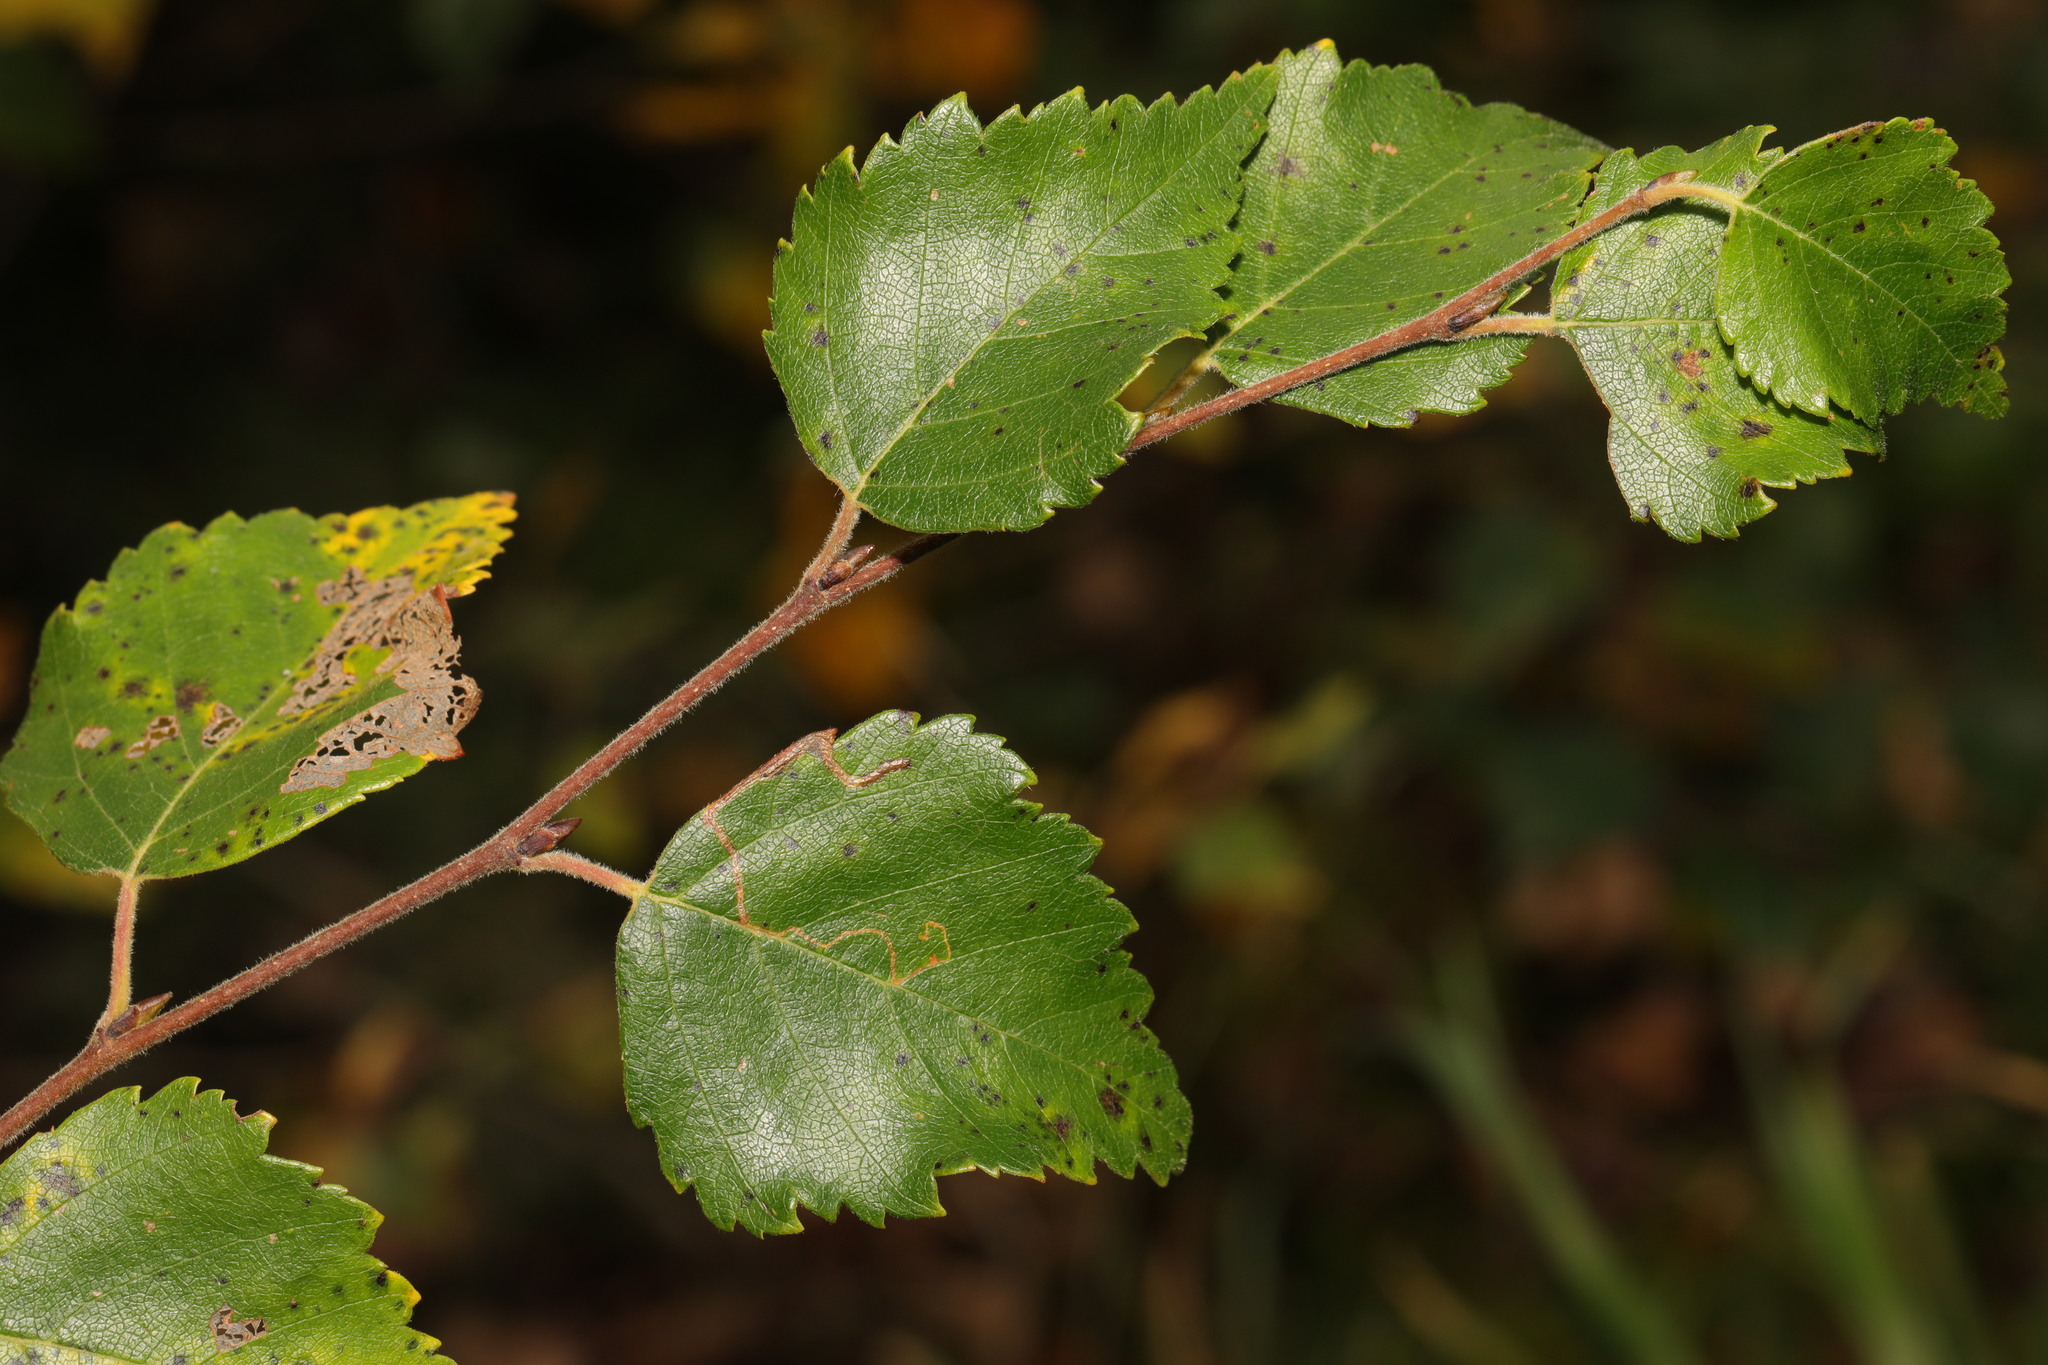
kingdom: Plantae
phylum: Tracheophyta
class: Magnoliopsida
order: Fagales
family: Betulaceae
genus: Betula
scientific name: Betula pubescens
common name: Downy birch
